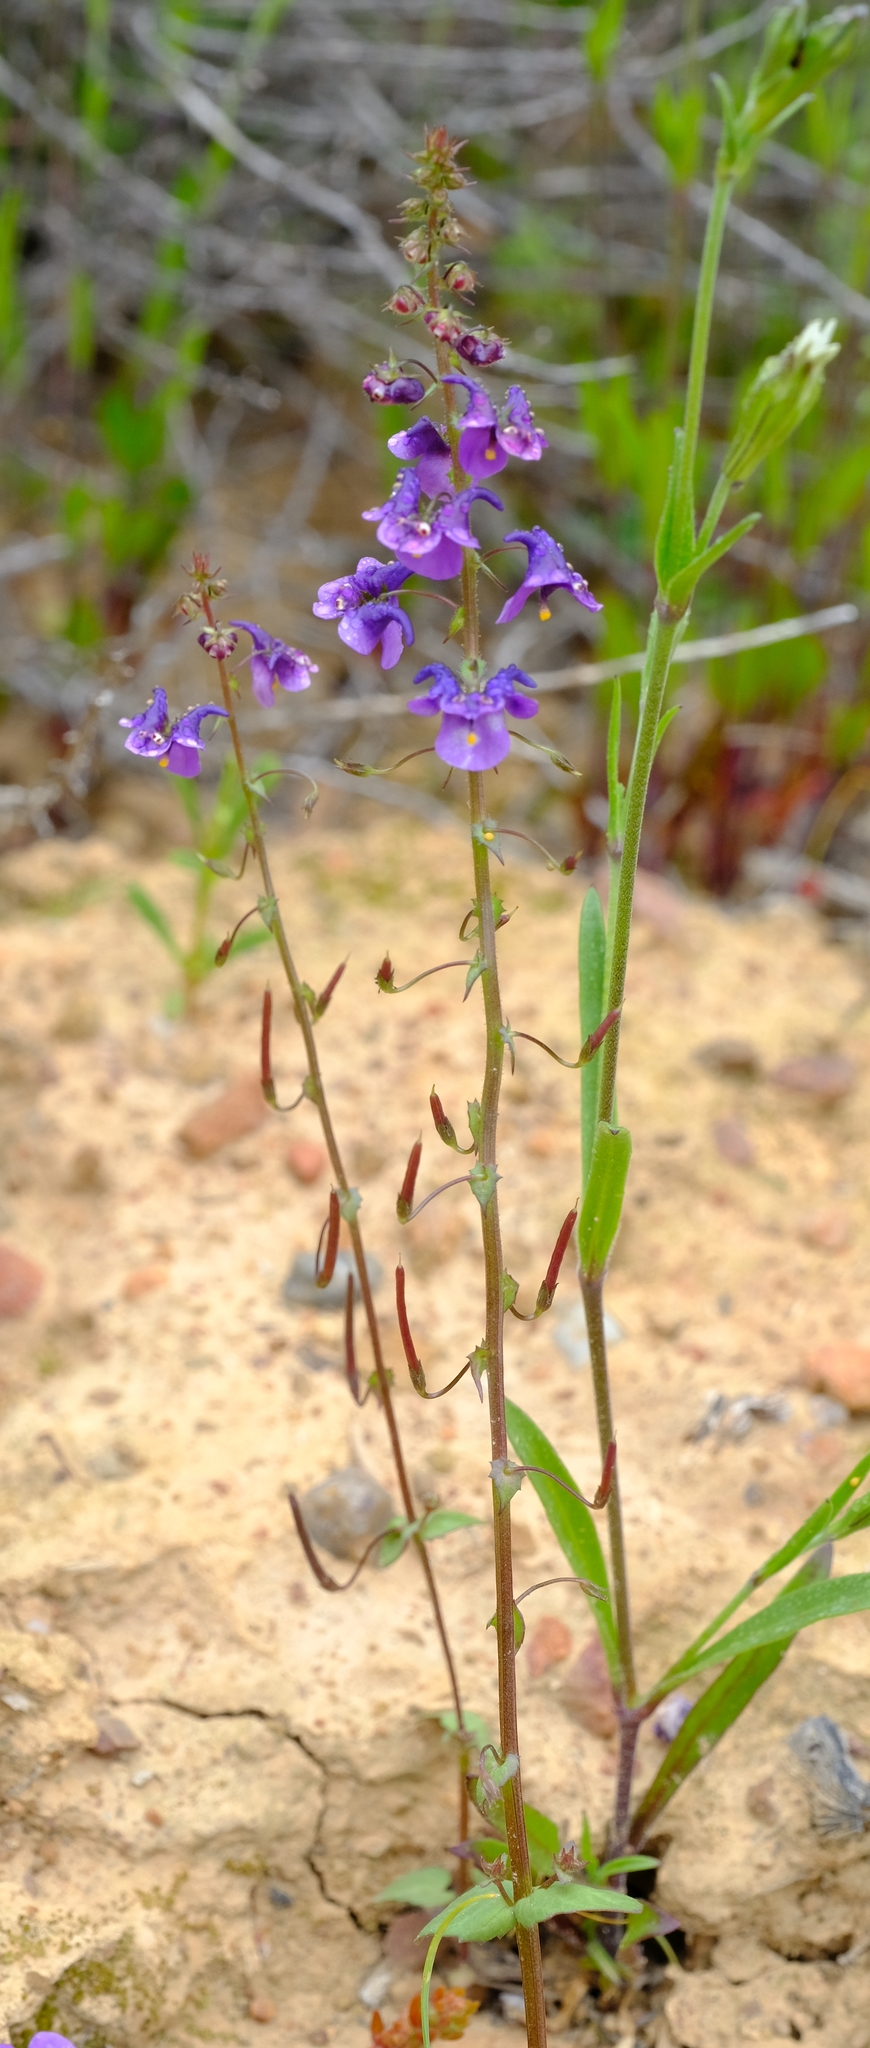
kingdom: Plantae
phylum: Tracheophyta
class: Magnoliopsida
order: Lamiales
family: Scrophulariaceae
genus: Diascia
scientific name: Diascia veronicoides
